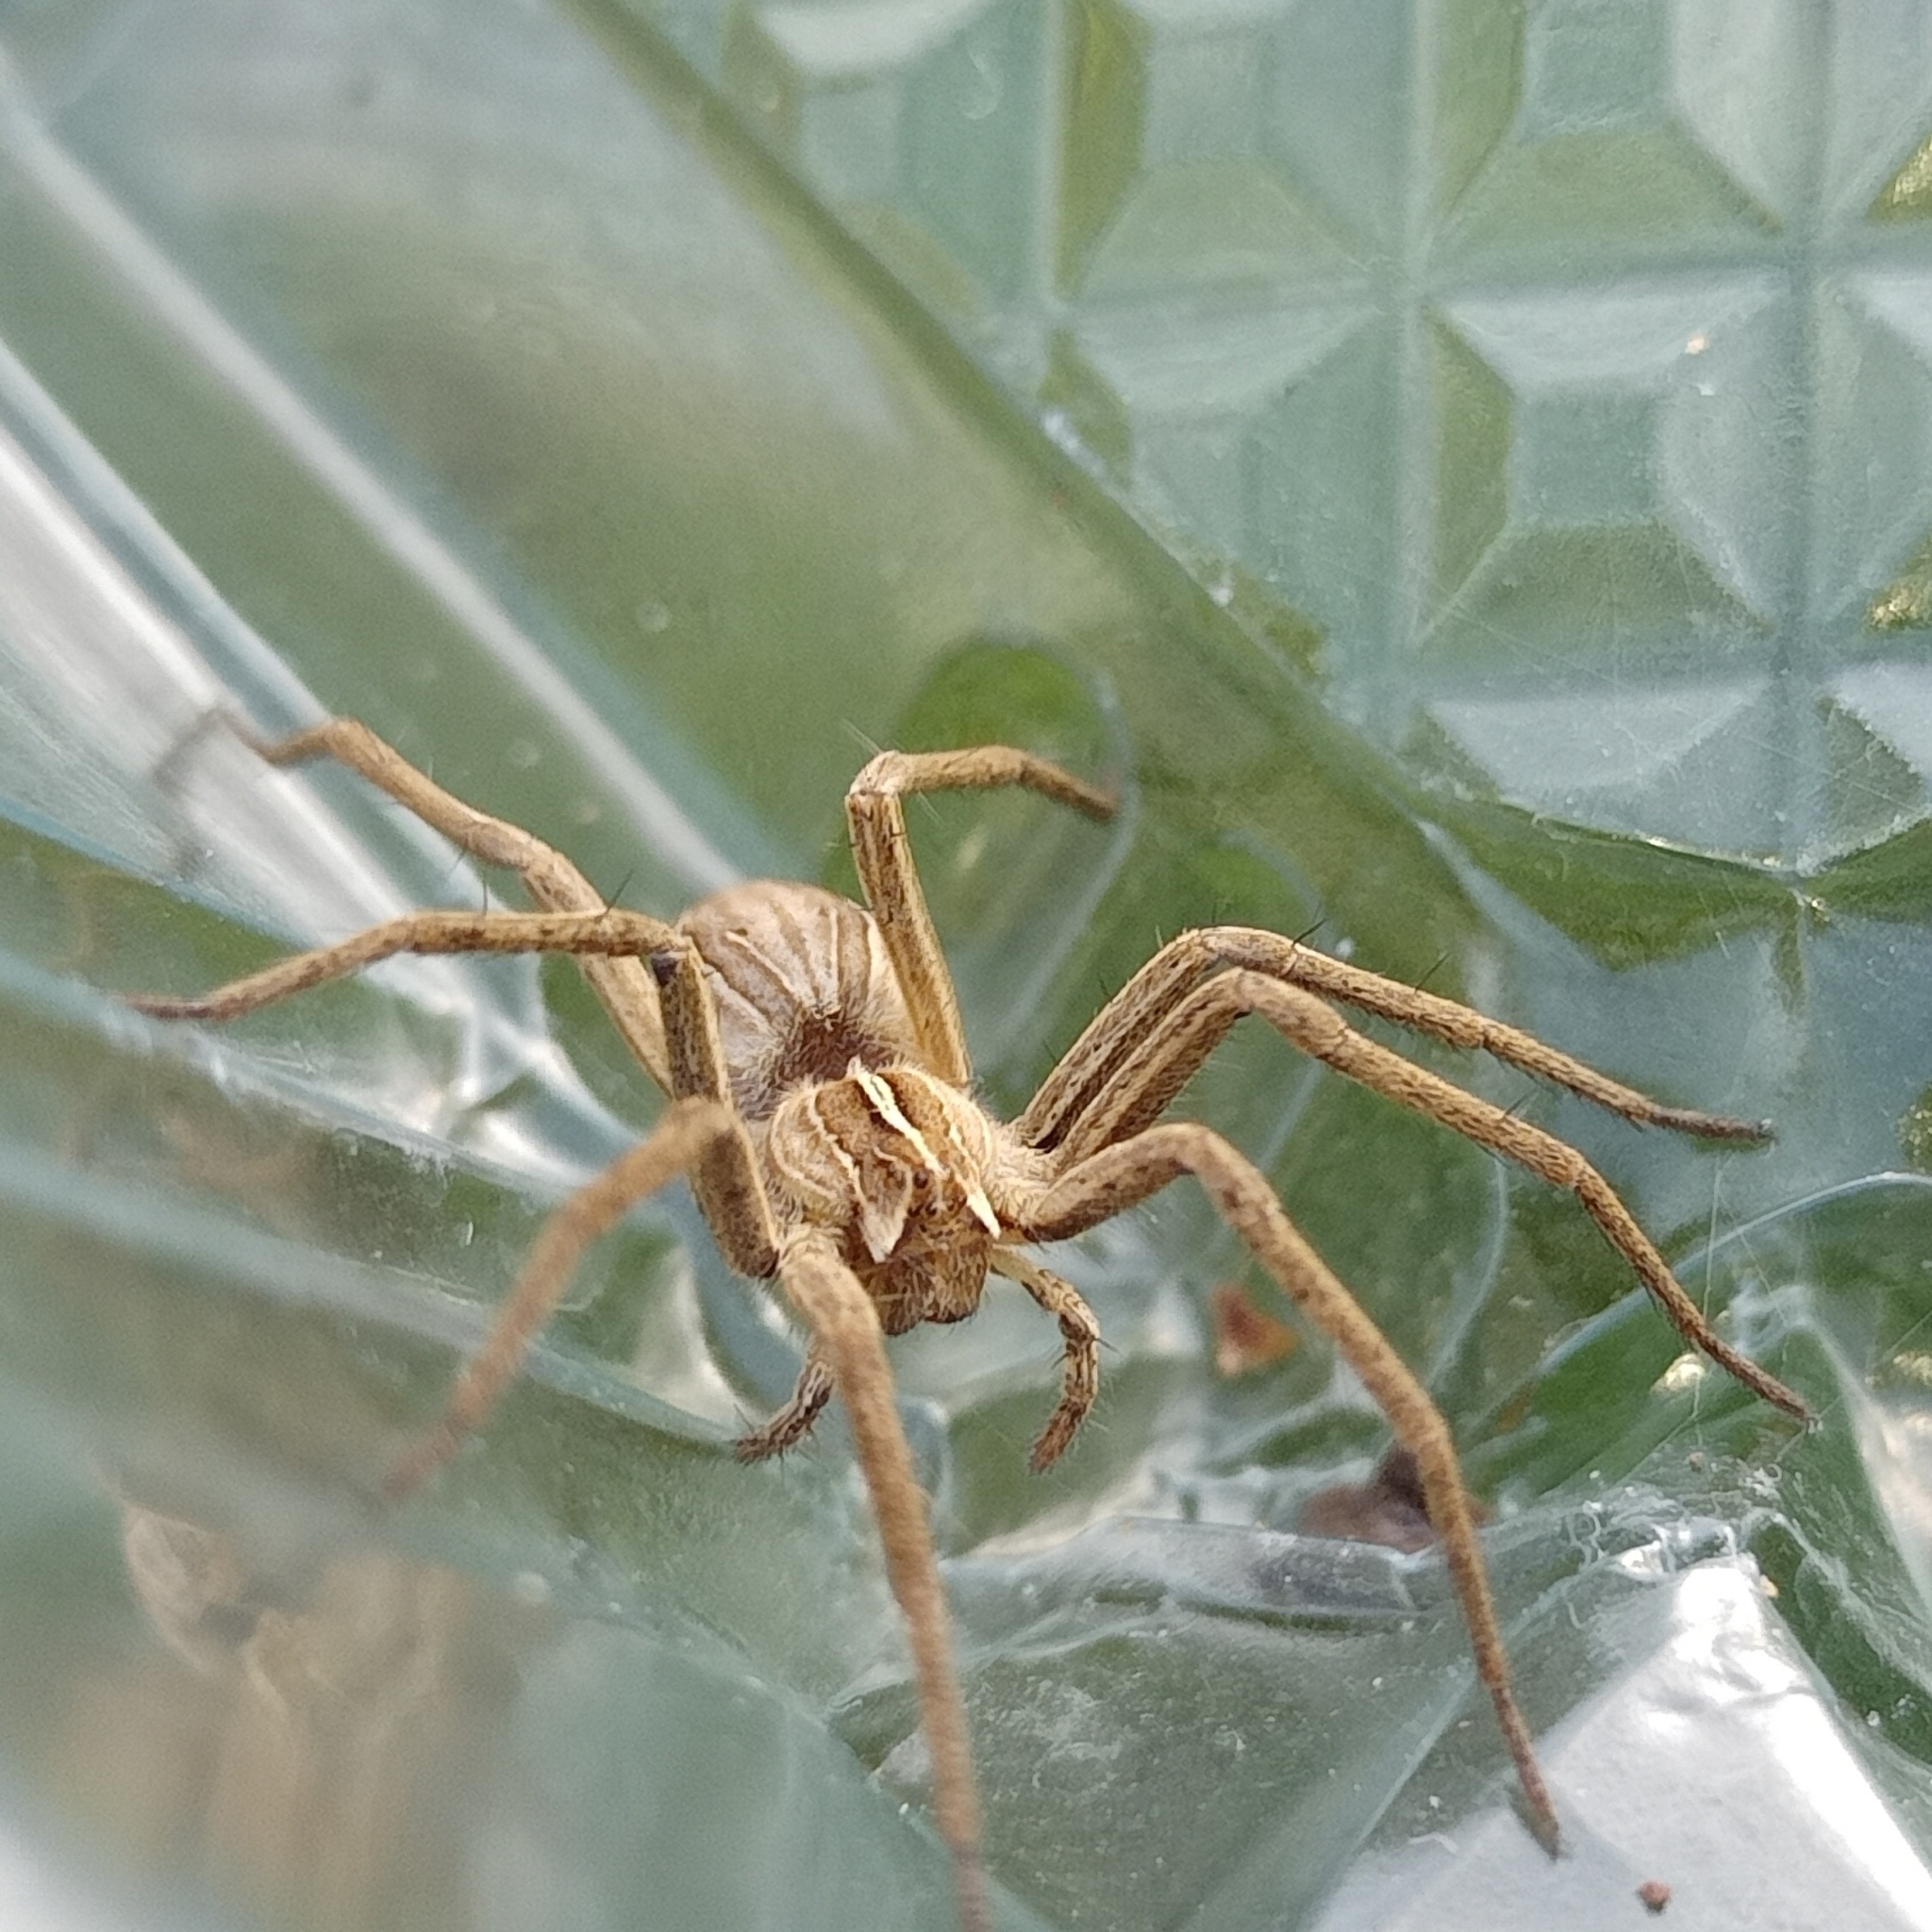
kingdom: Animalia
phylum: Arthropoda
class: Arachnida
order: Araneae
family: Pisauridae
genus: Pisaura
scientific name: Pisaura mirabilis
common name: Tent spider
